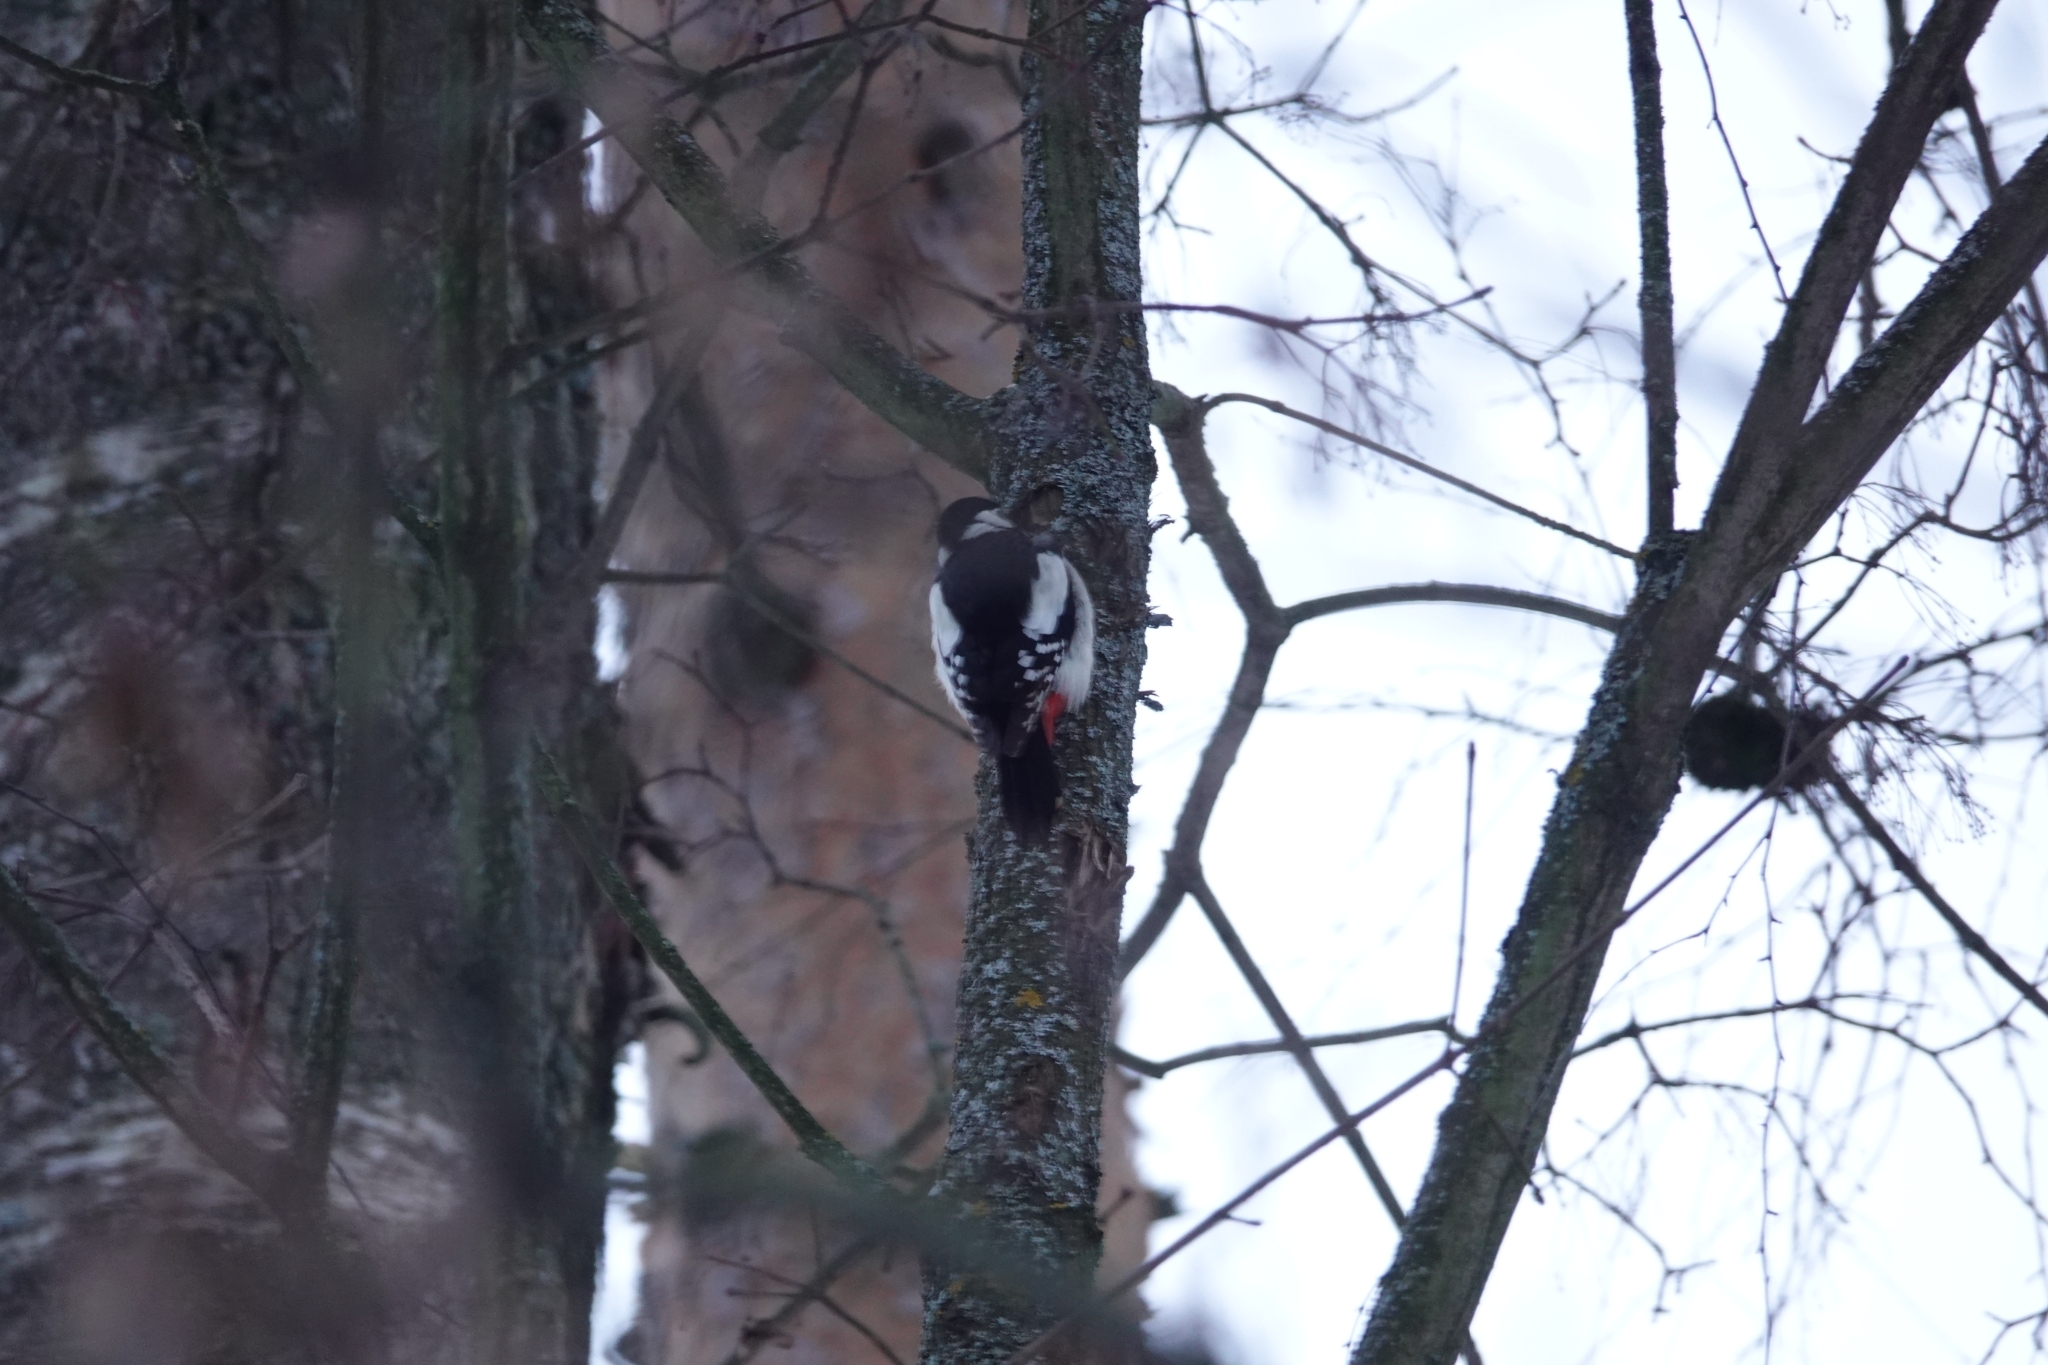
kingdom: Animalia
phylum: Chordata
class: Aves
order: Piciformes
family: Picidae
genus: Dendrocopos
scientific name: Dendrocopos major
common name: Great spotted woodpecker
